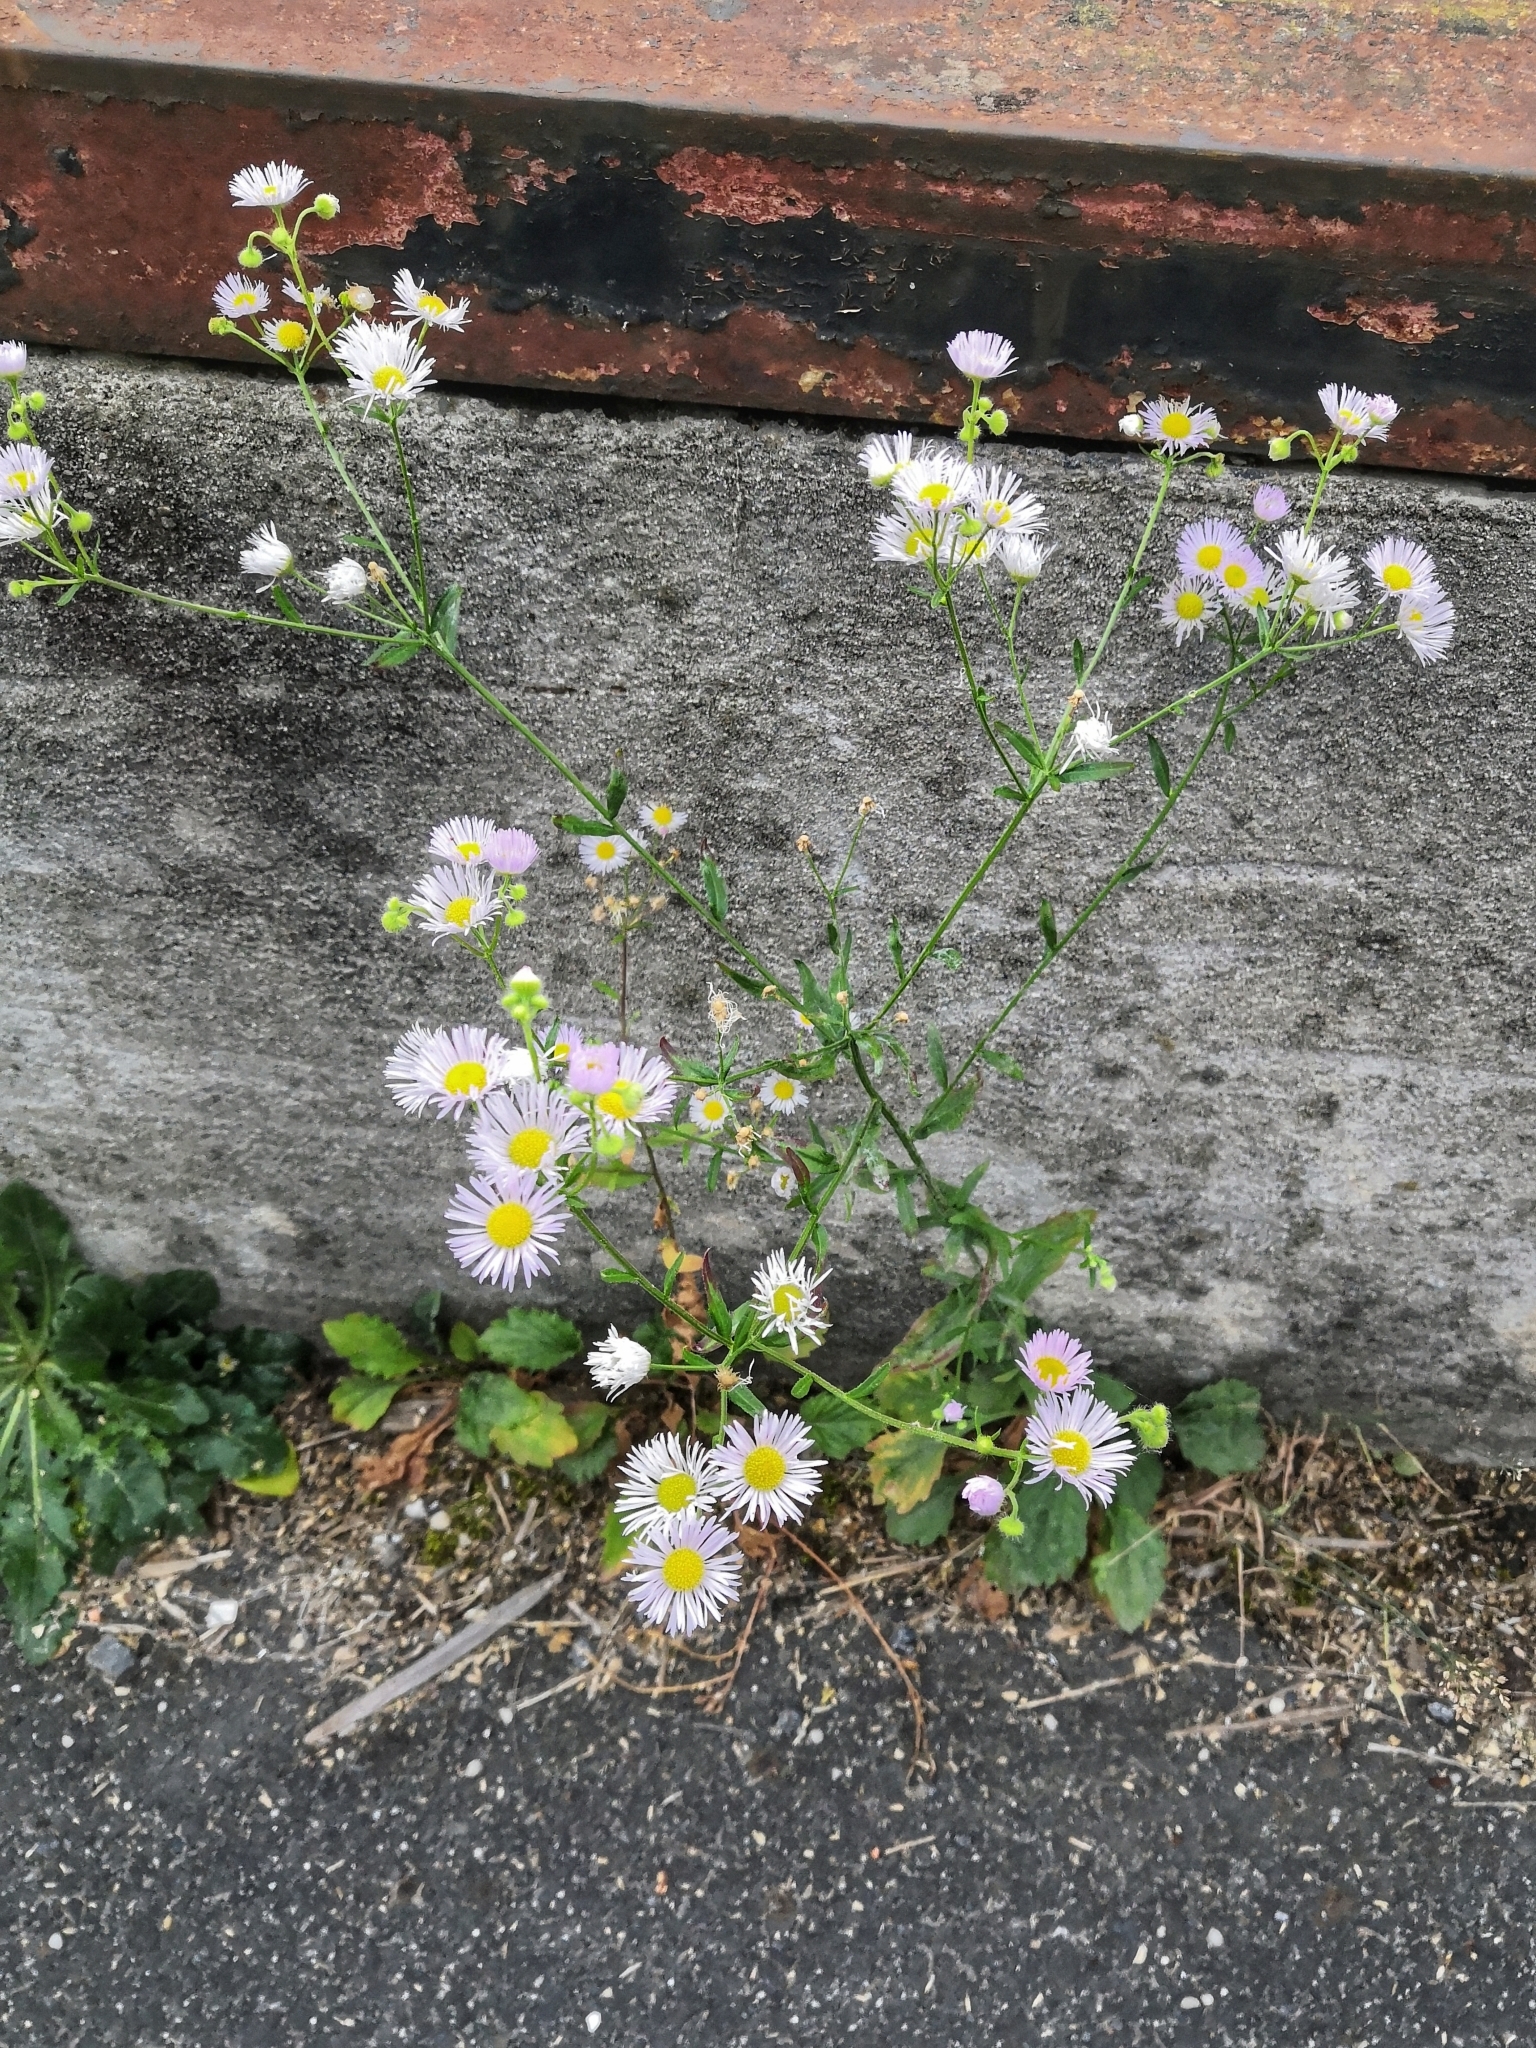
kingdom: Plantae
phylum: Tracheophyta
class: Magnoliopsida
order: Asterales
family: Asteraceae
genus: Erigeron
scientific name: Erigeron annuus
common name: Tall fleabane
